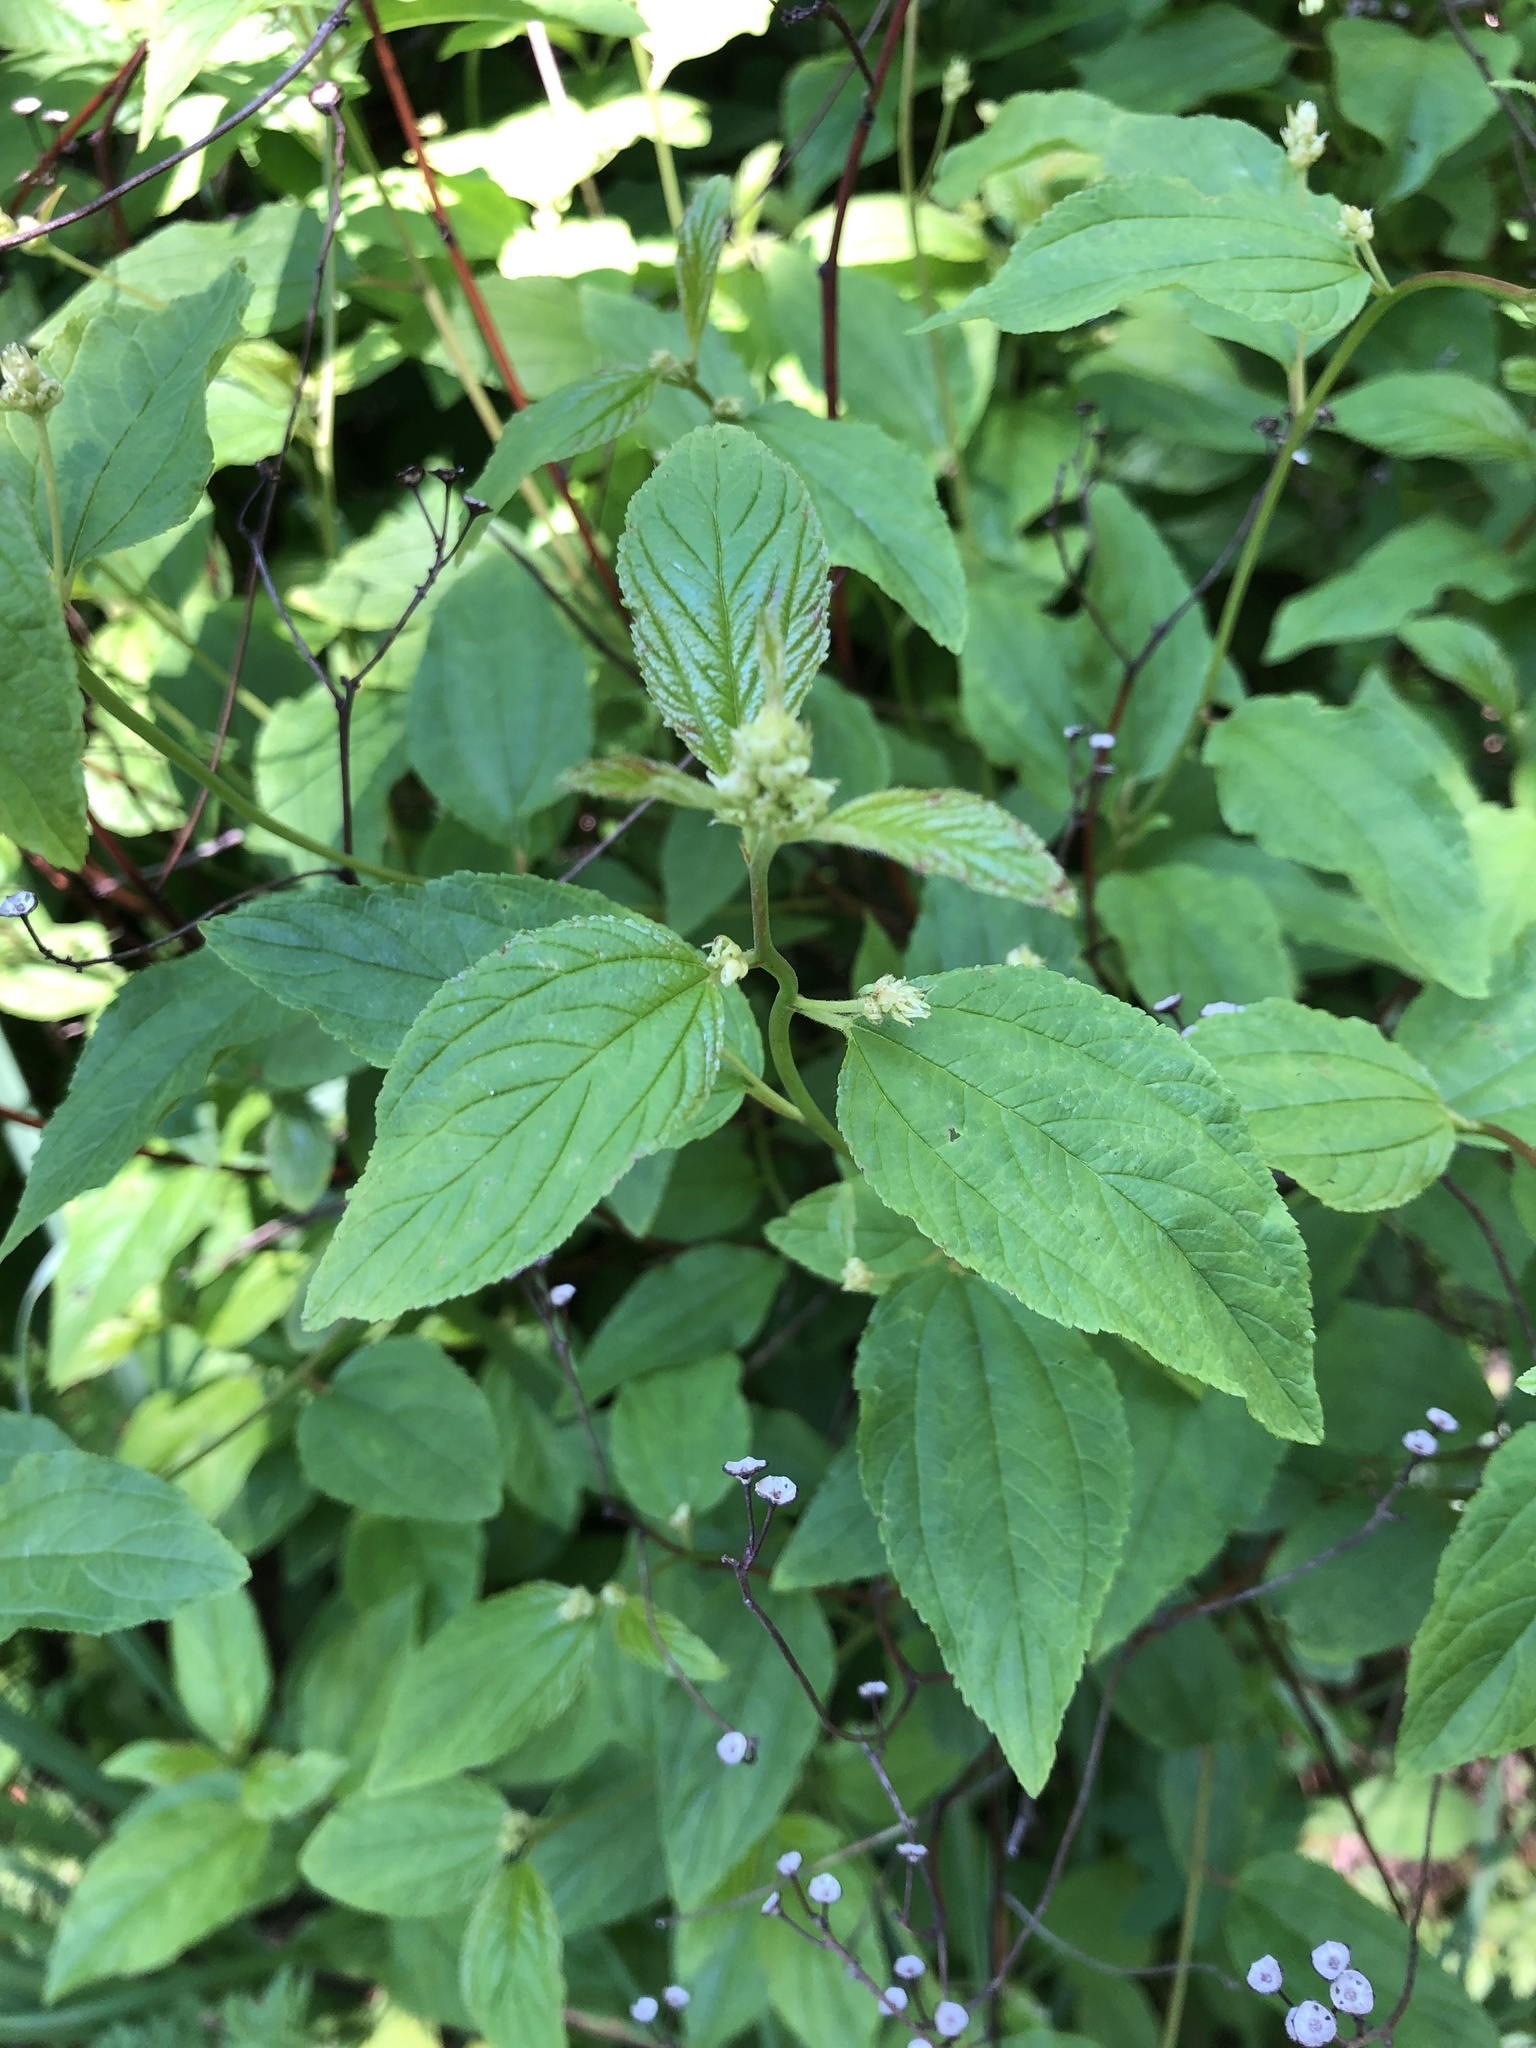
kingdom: Plantae
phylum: Tracheophyta
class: Magnoliopsida
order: Rosales
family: Rhamnaceae
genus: Ceanothus
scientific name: Ceanothus americanus
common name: Redroot
